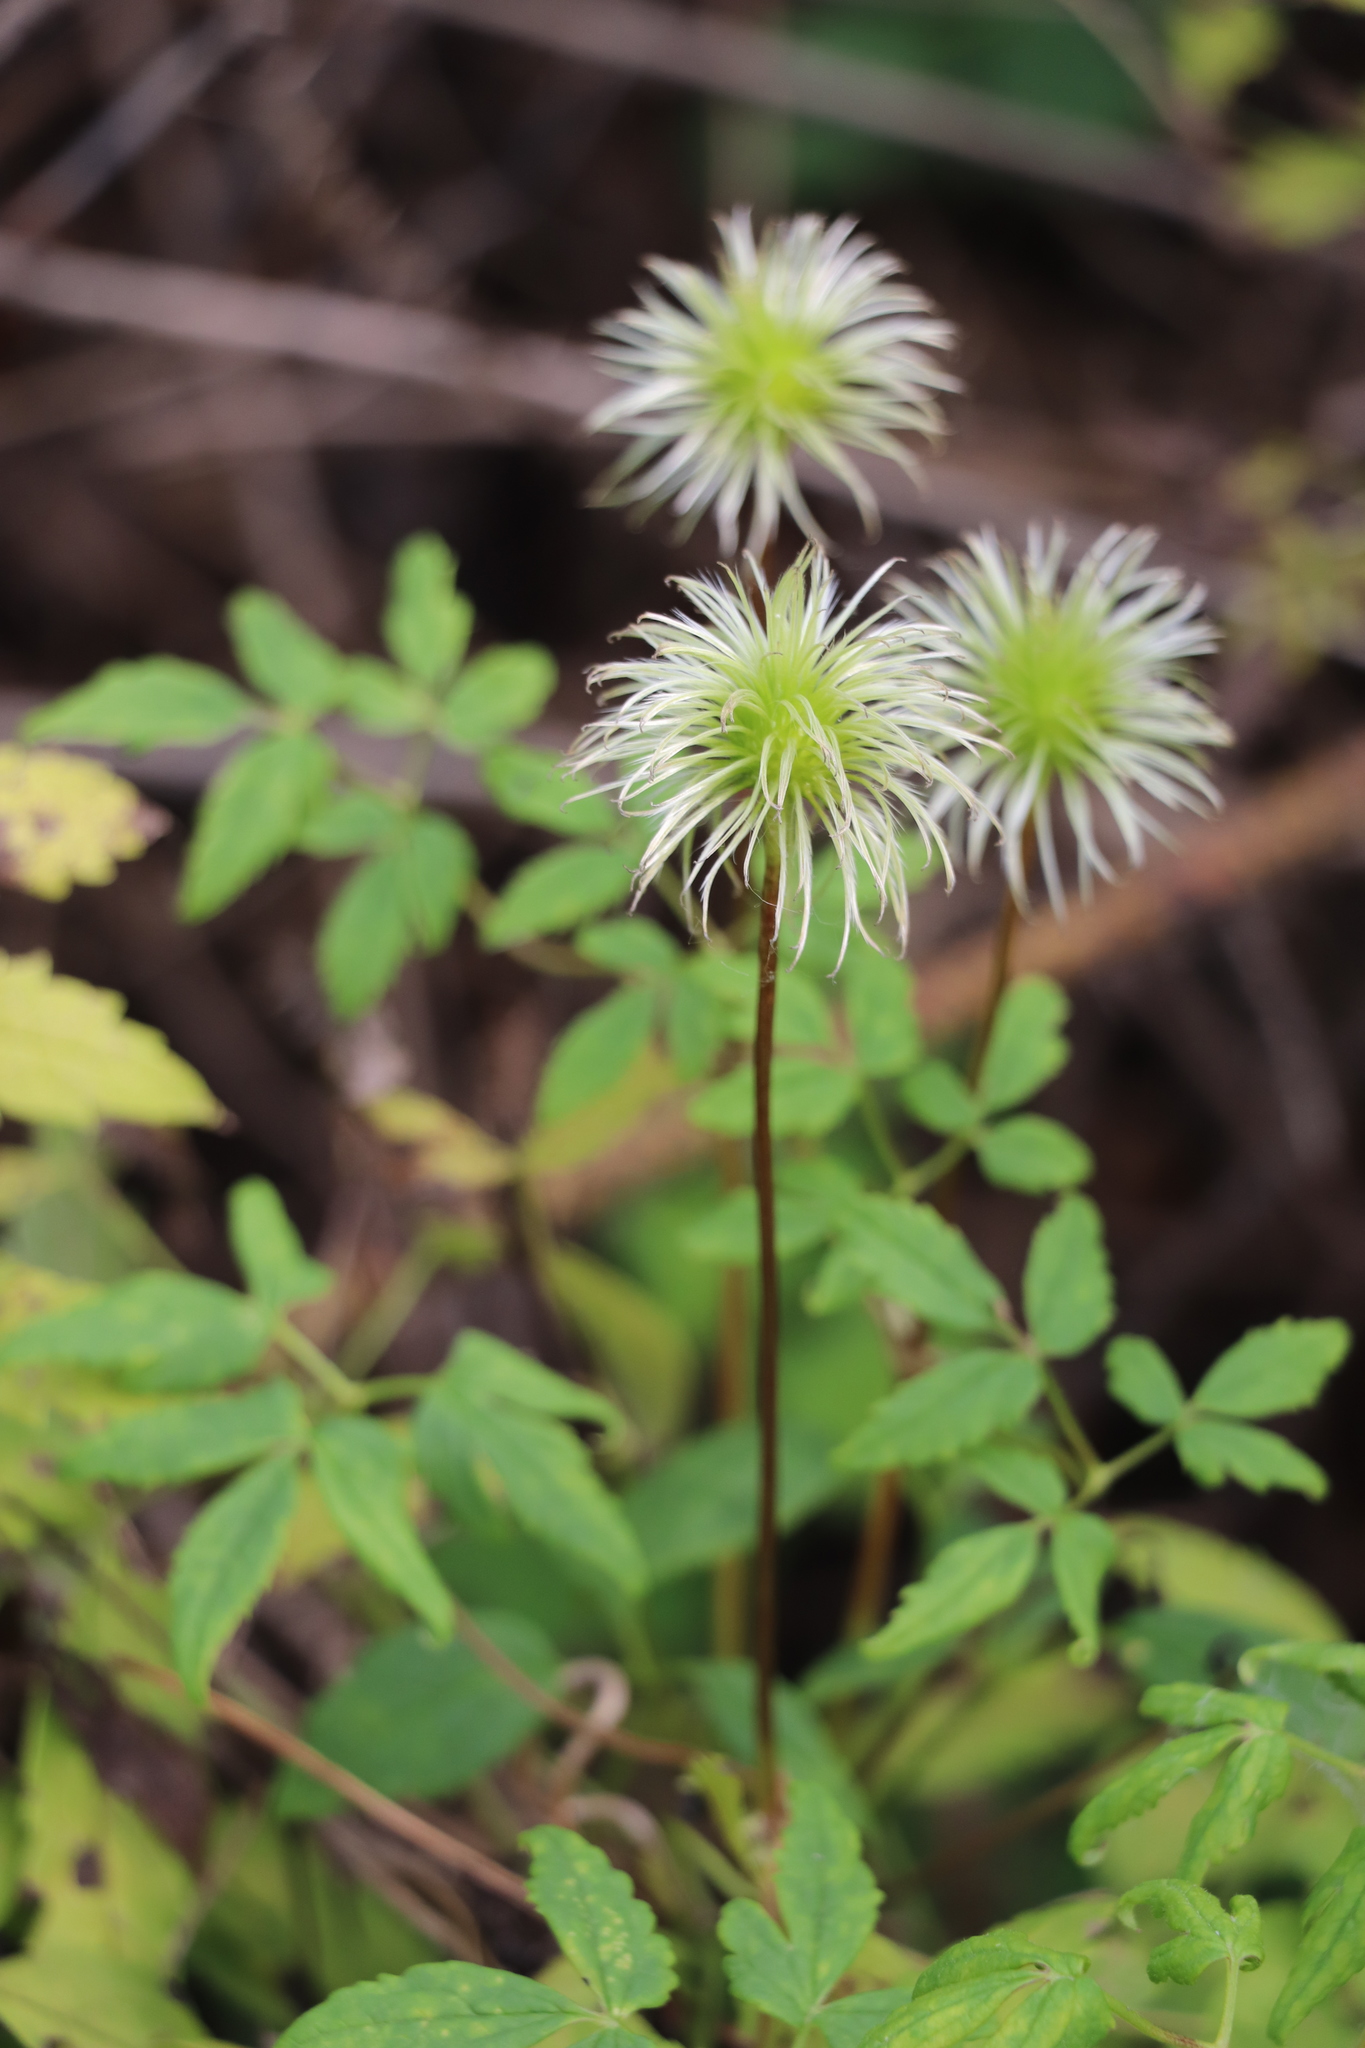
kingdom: Plantae
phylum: Tracheophyta
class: Magnoliopsida
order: Ranunculales
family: Ranunculaceae
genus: Clematis
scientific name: Clematis sibirica
